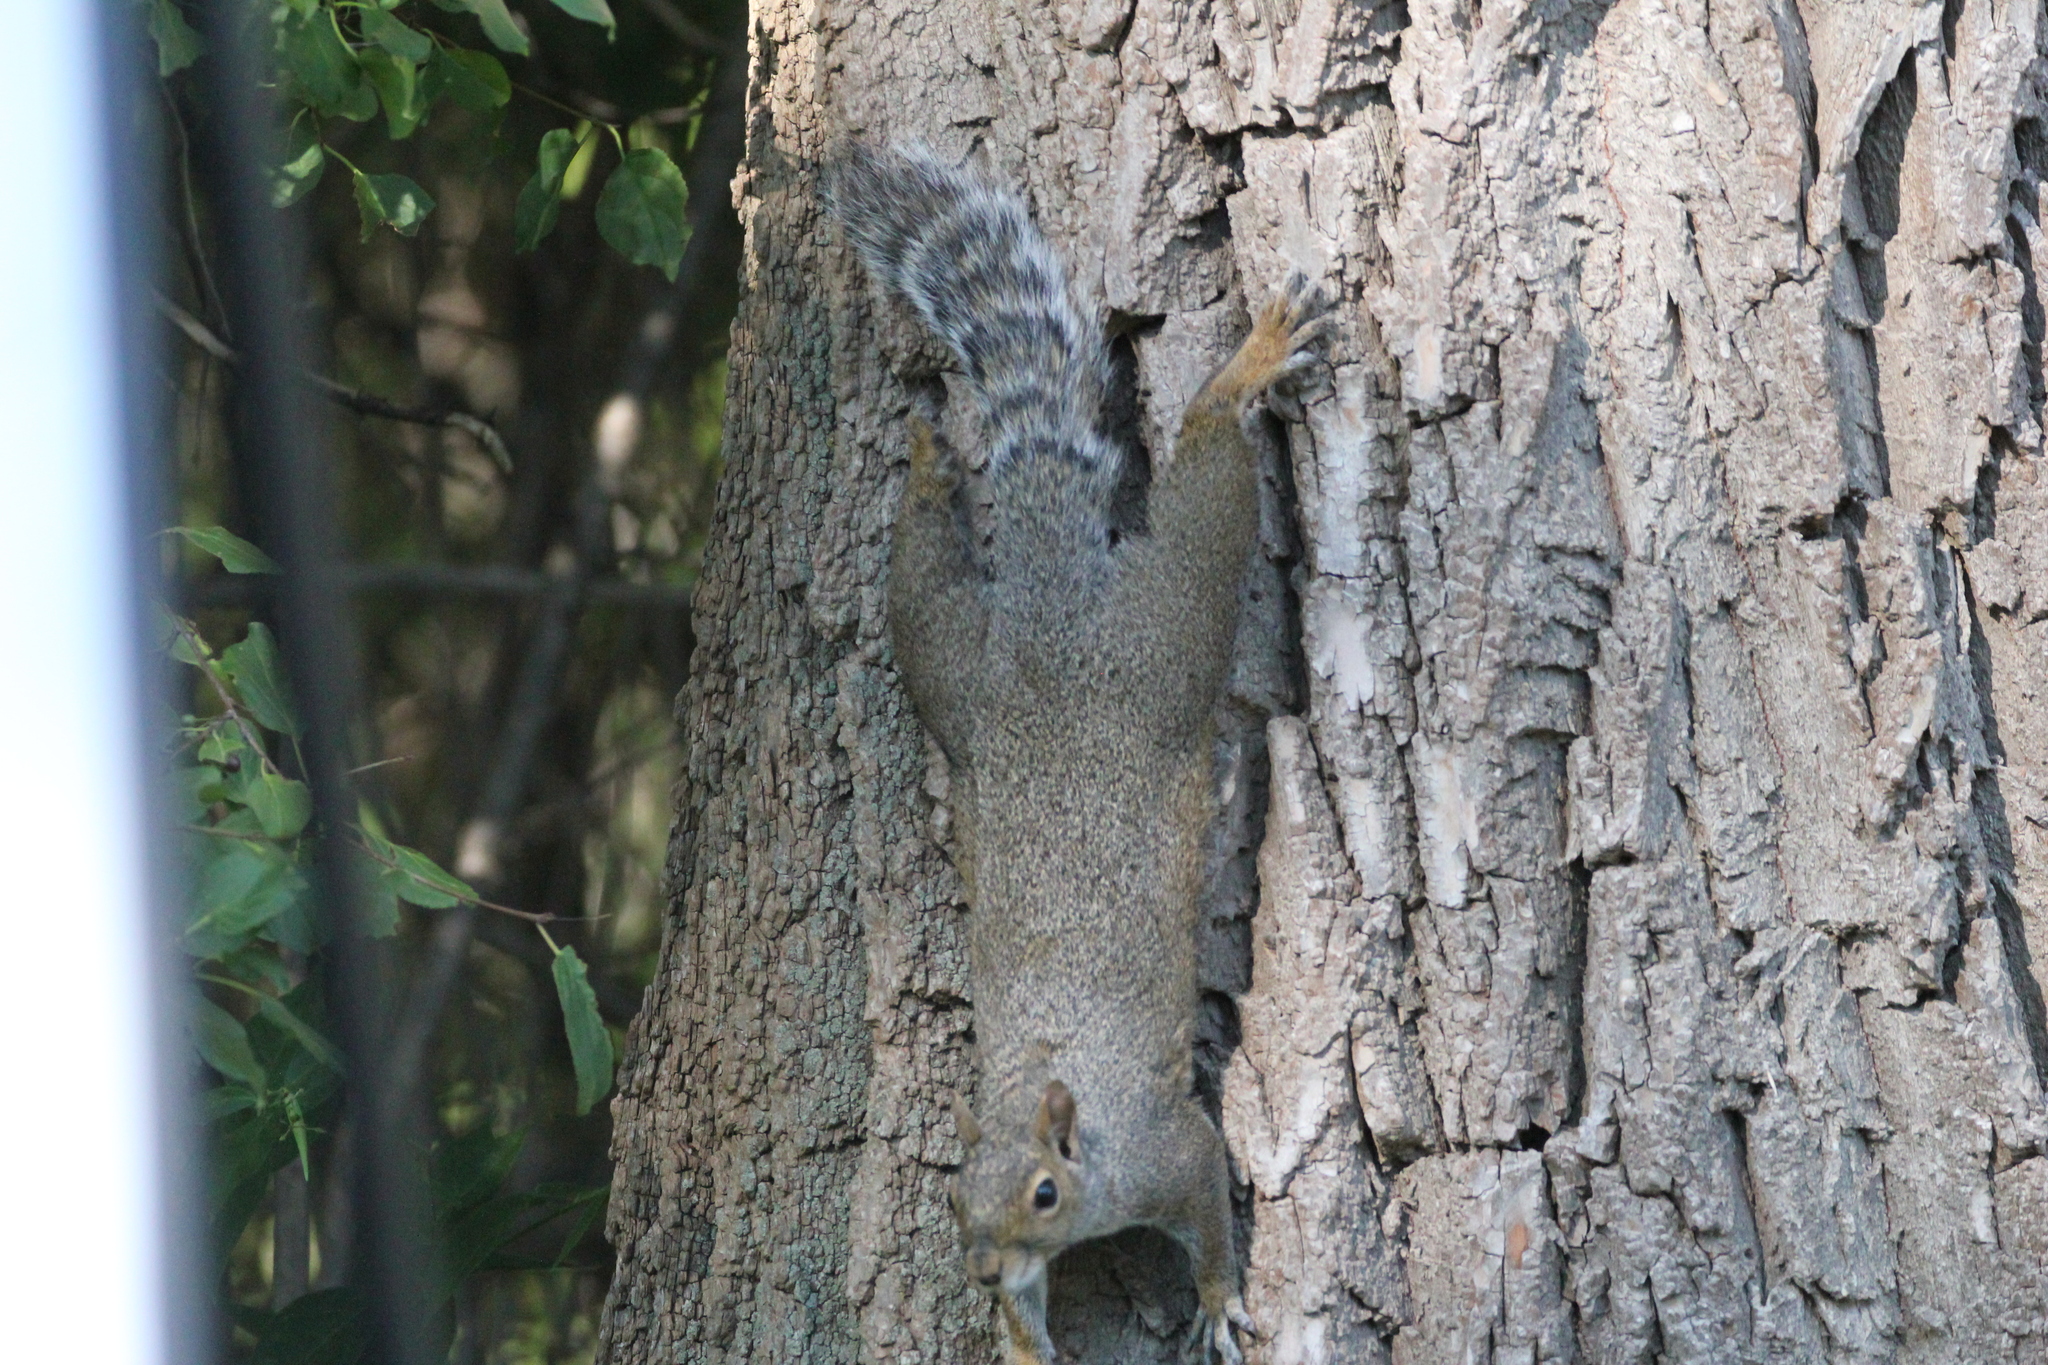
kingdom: Animalia
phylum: Chordata
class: Mammalia
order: Rodentia
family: Sciuridae
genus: Sciurus
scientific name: Sciurus carolinensis
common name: Eastern gray squirrel
